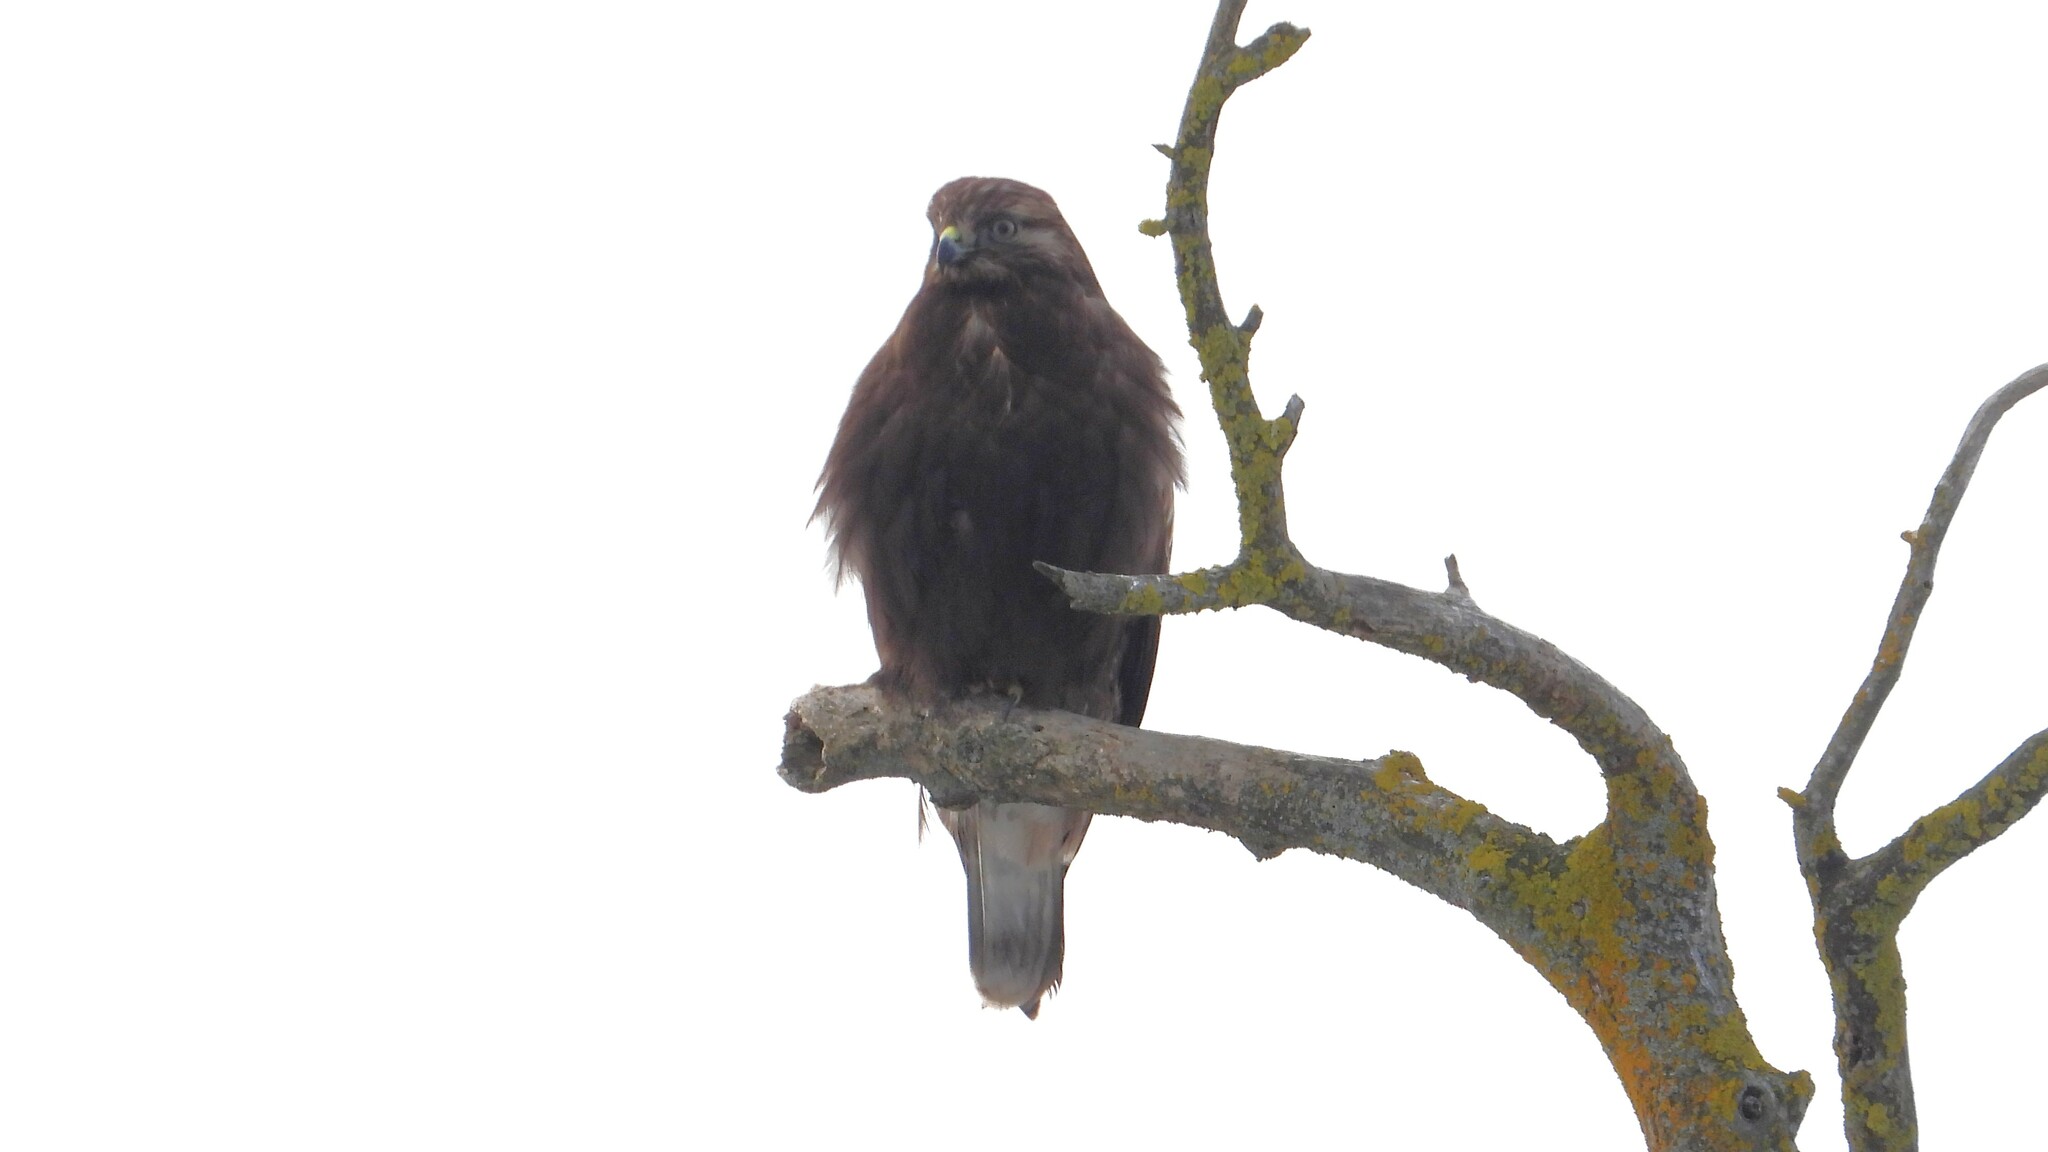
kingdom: Animalia
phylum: Chordata
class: Aves
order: Accipitriformes
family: Accipitridae
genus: Buteo
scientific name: Buteo lagopus
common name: Rough-legged buzzard
